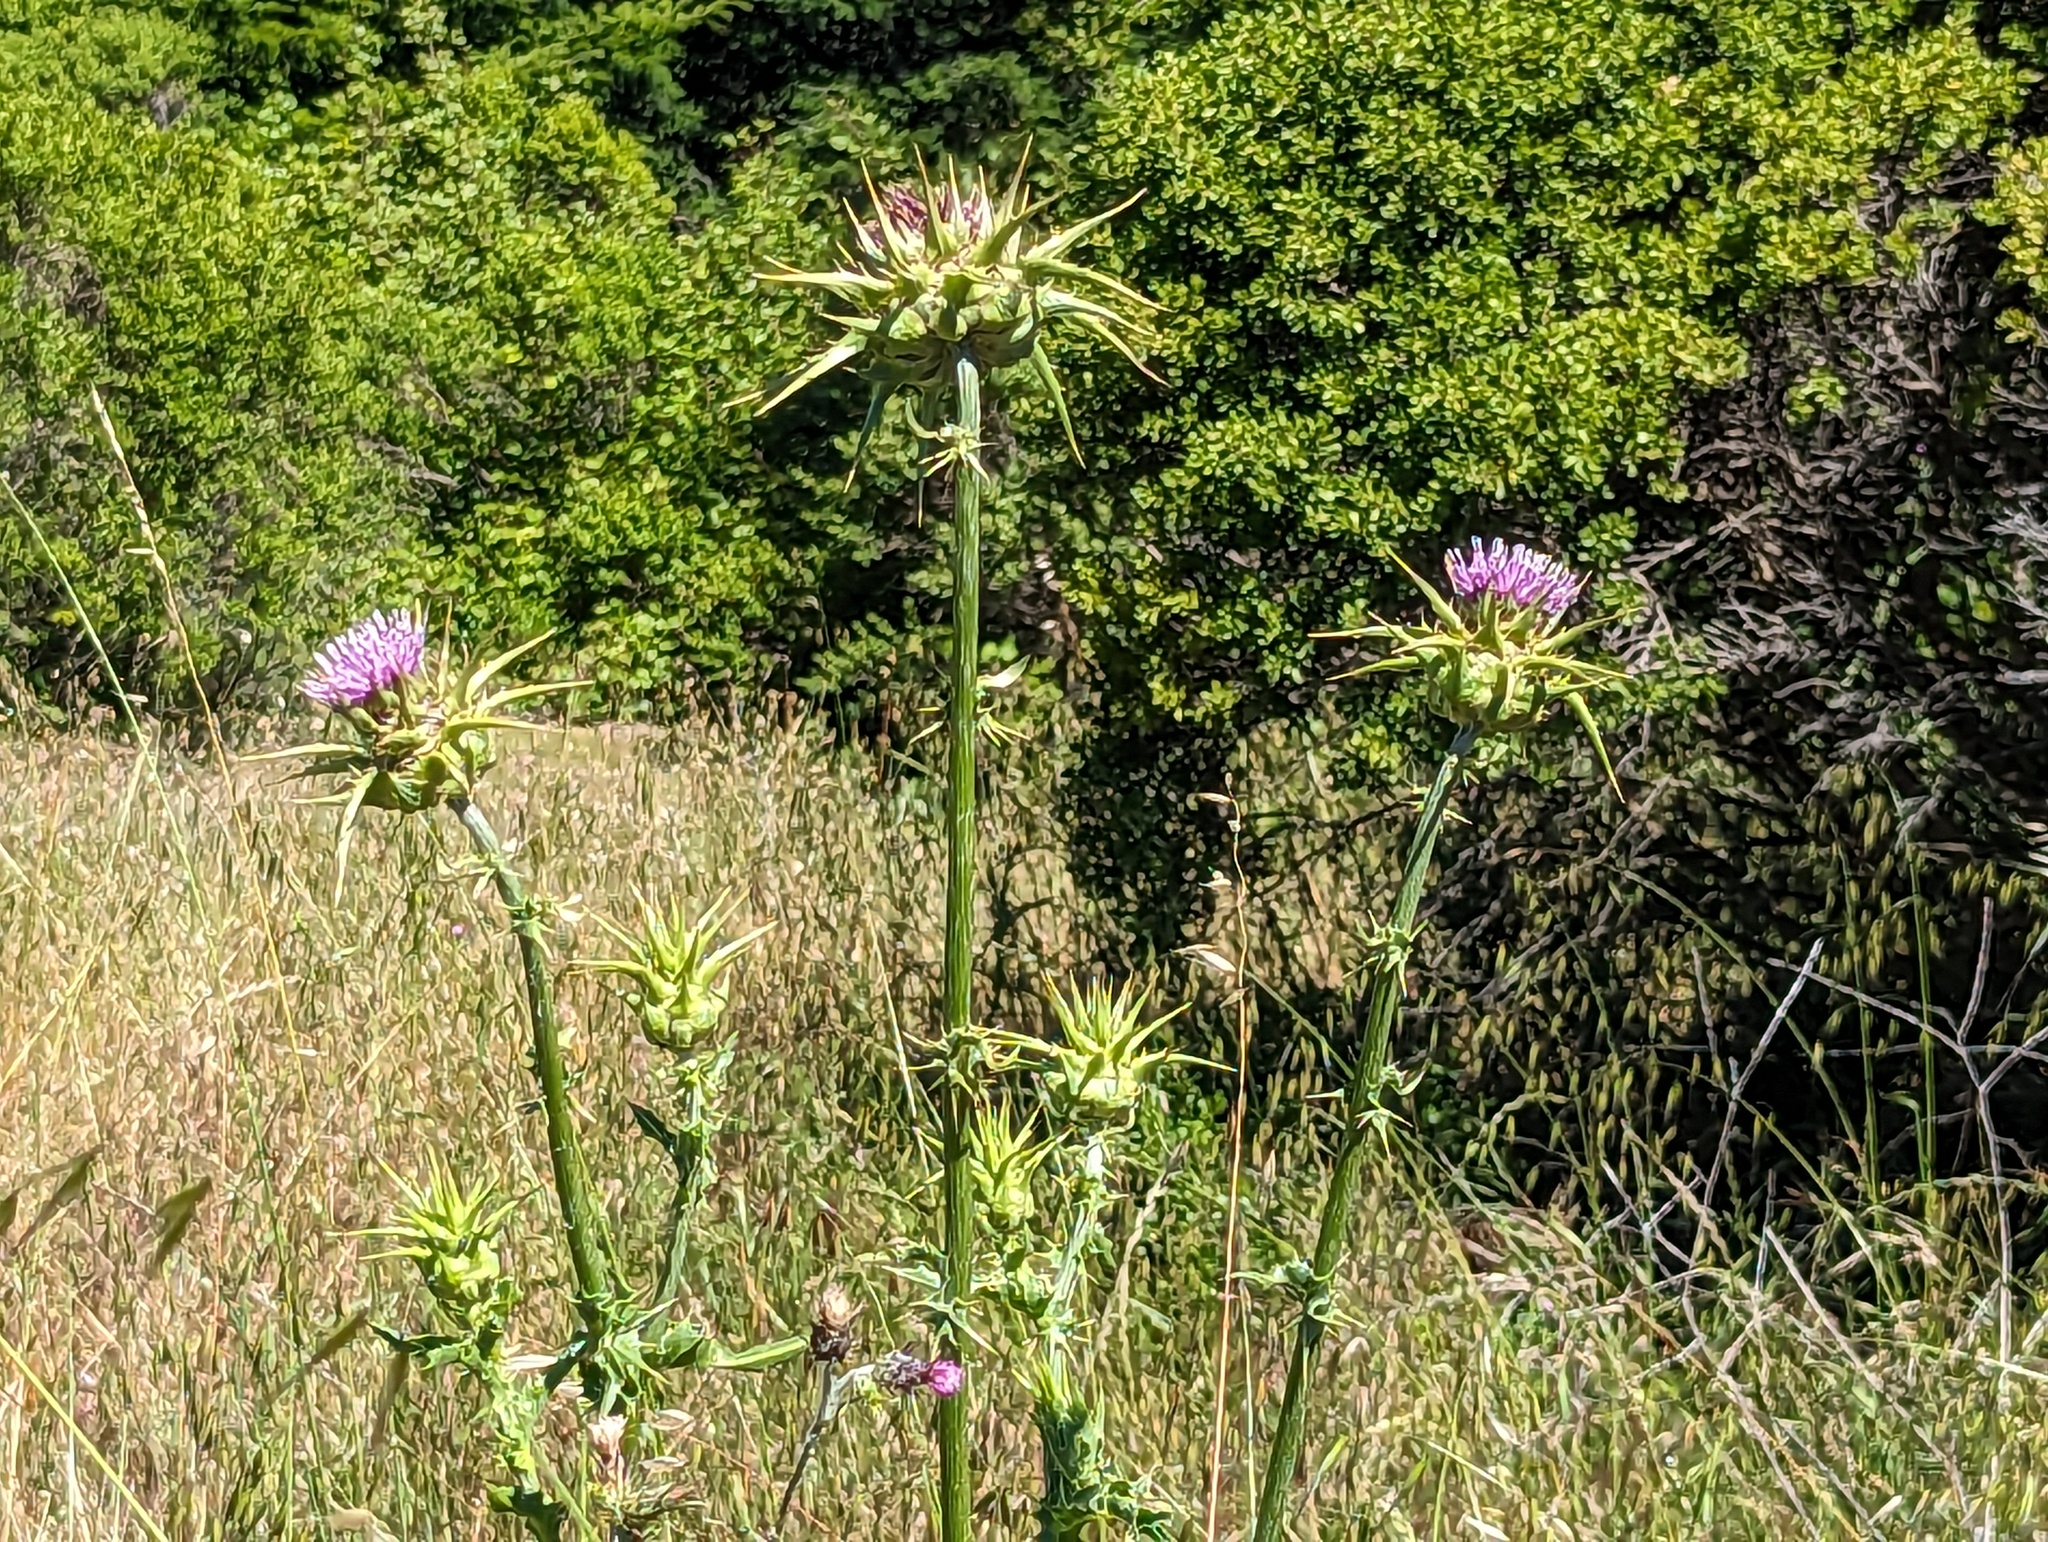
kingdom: Plantae
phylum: Tracheophyta
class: Magnoliopsida
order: Asterales
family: Asteraceae
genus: Silybum
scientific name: Silybum marianum
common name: Milk thistle
